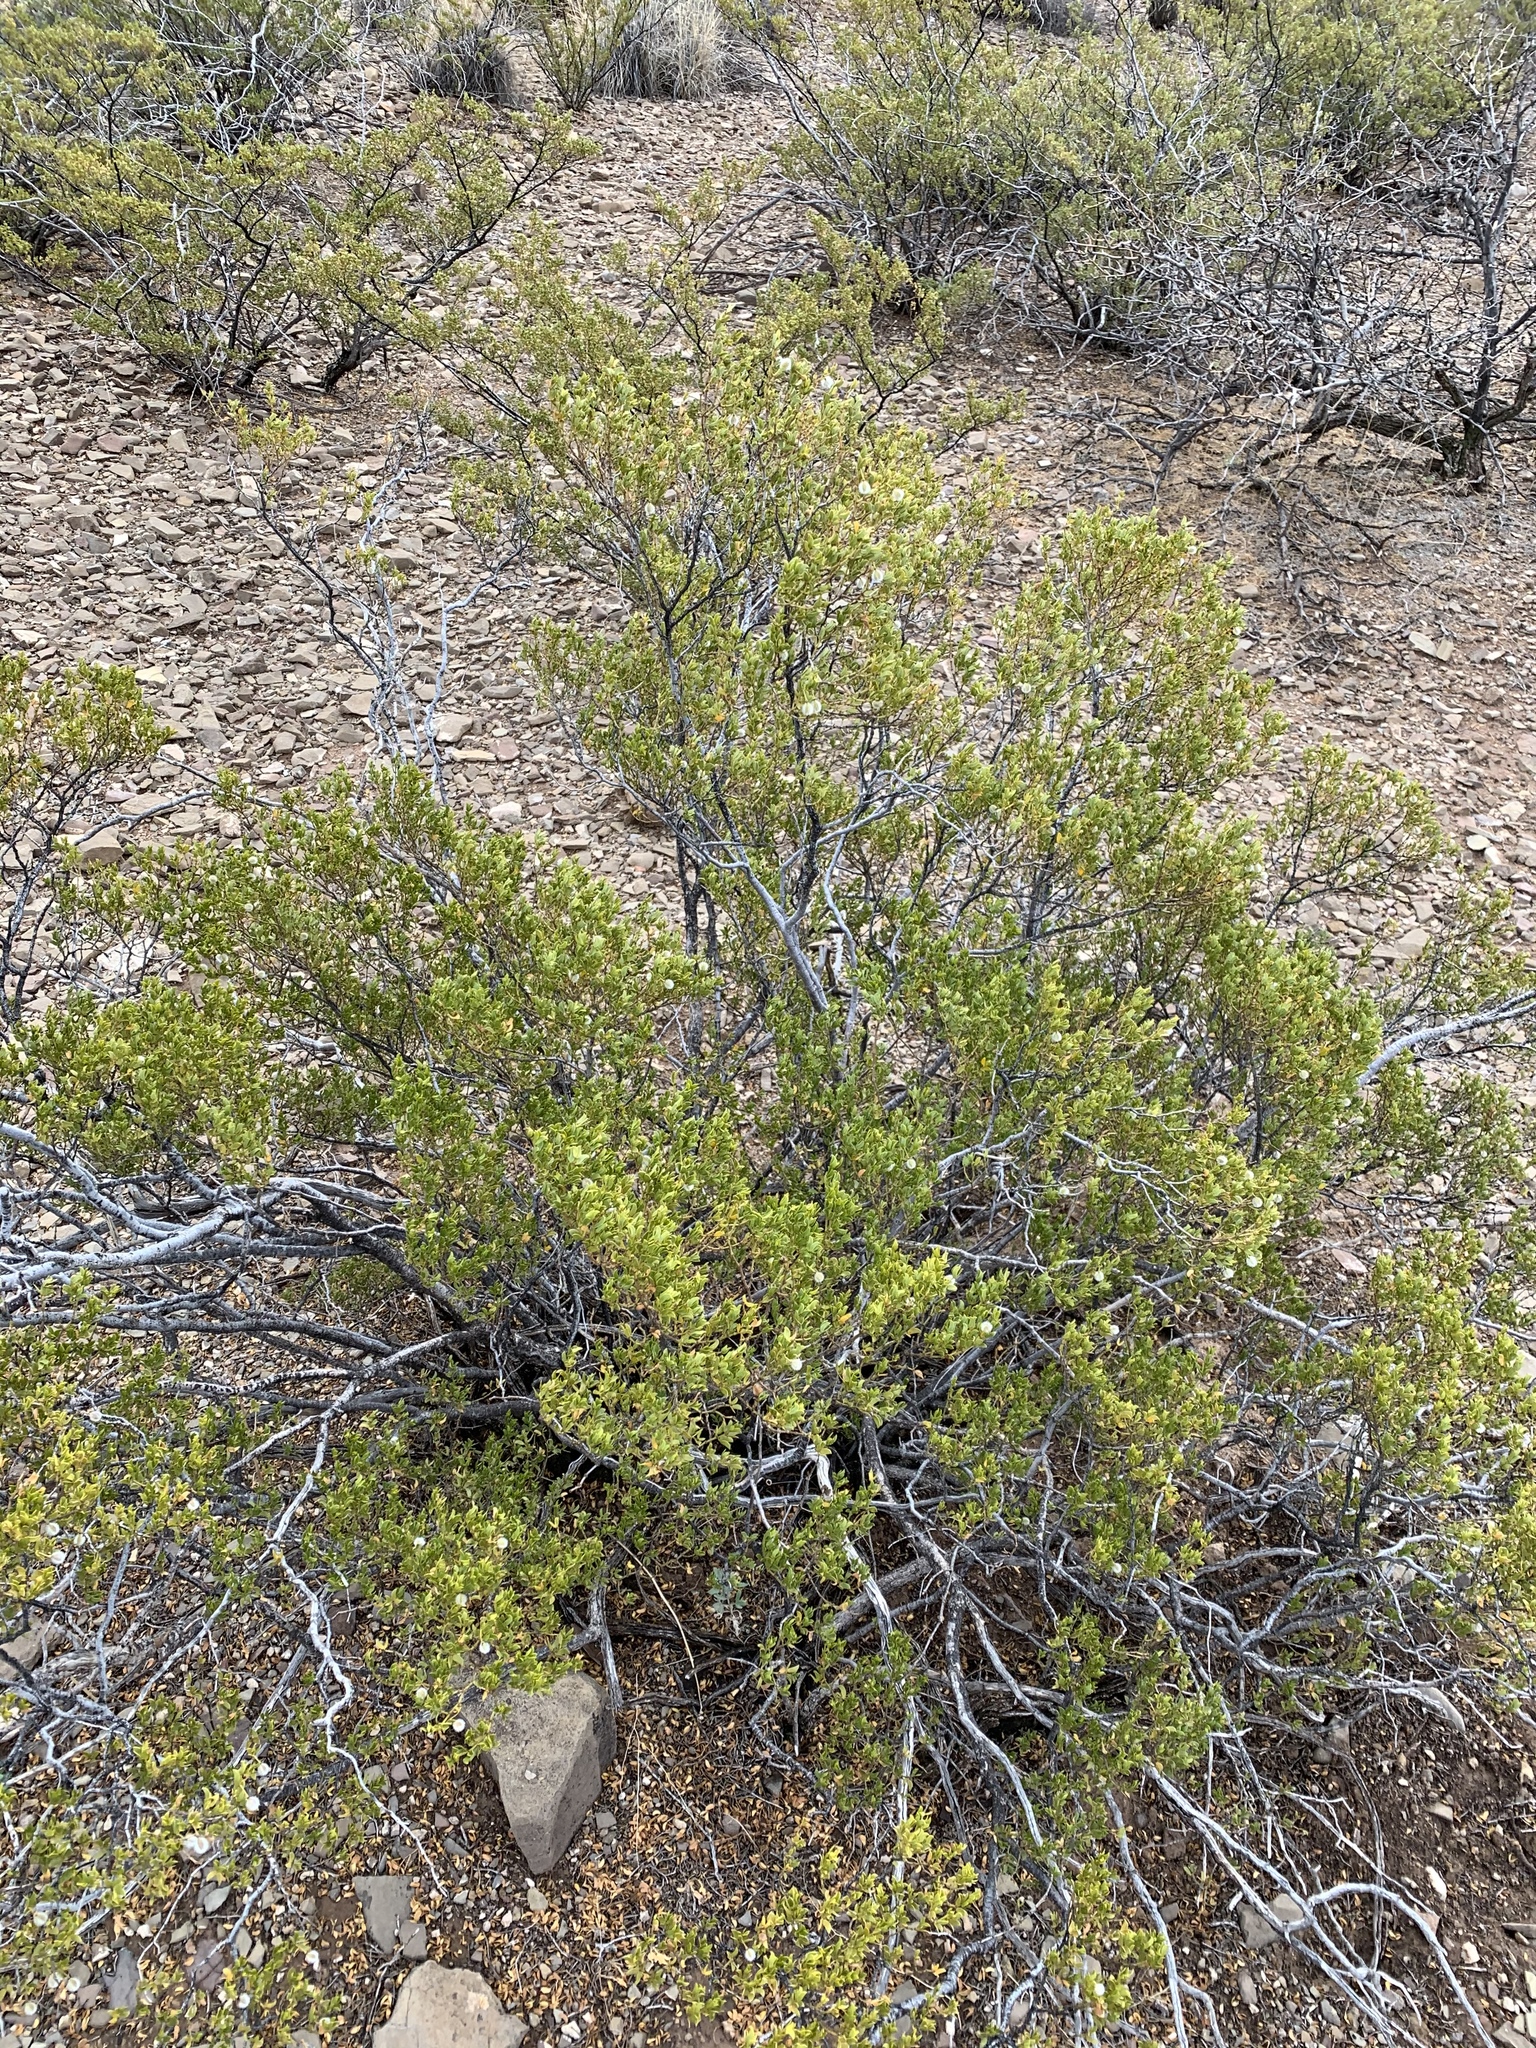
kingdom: Plantae
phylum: Tracheophyta
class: Magnoliopsida
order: Zygophyllales
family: Zygophyllaceae
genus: Larrea
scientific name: Larrea tridentata
